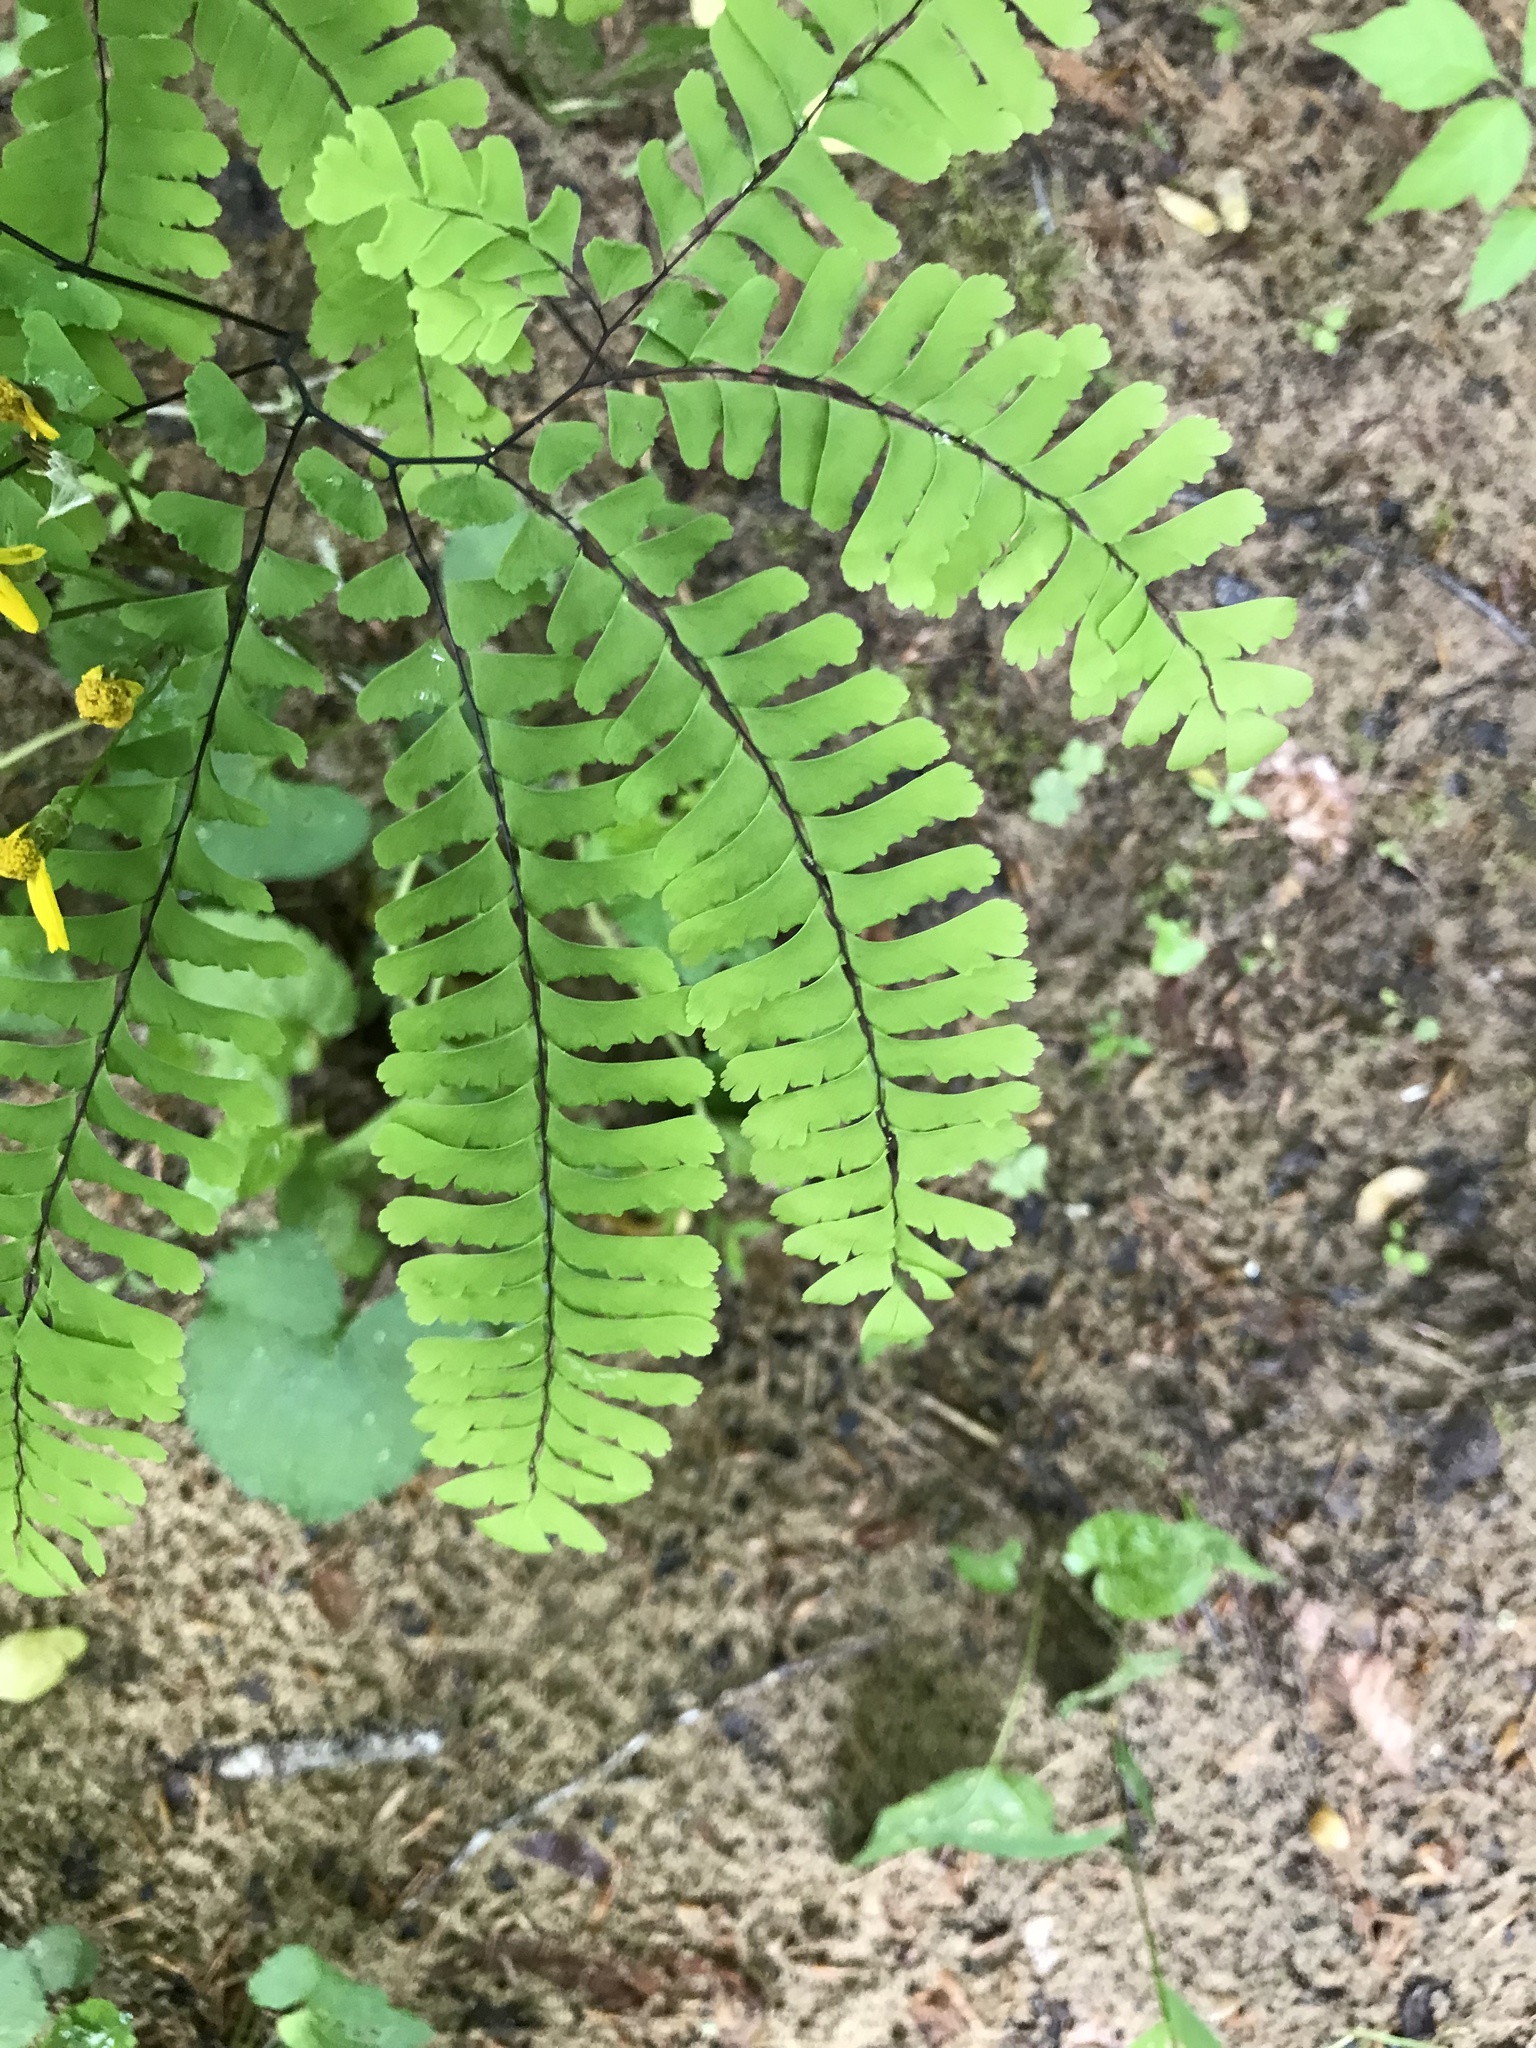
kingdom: Plantae
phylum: Tracheophyta
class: Polypodiopsida
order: Polypodiales
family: Pteridaceae
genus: Adiantum
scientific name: Adiantum pedatum
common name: Five-finger fern
